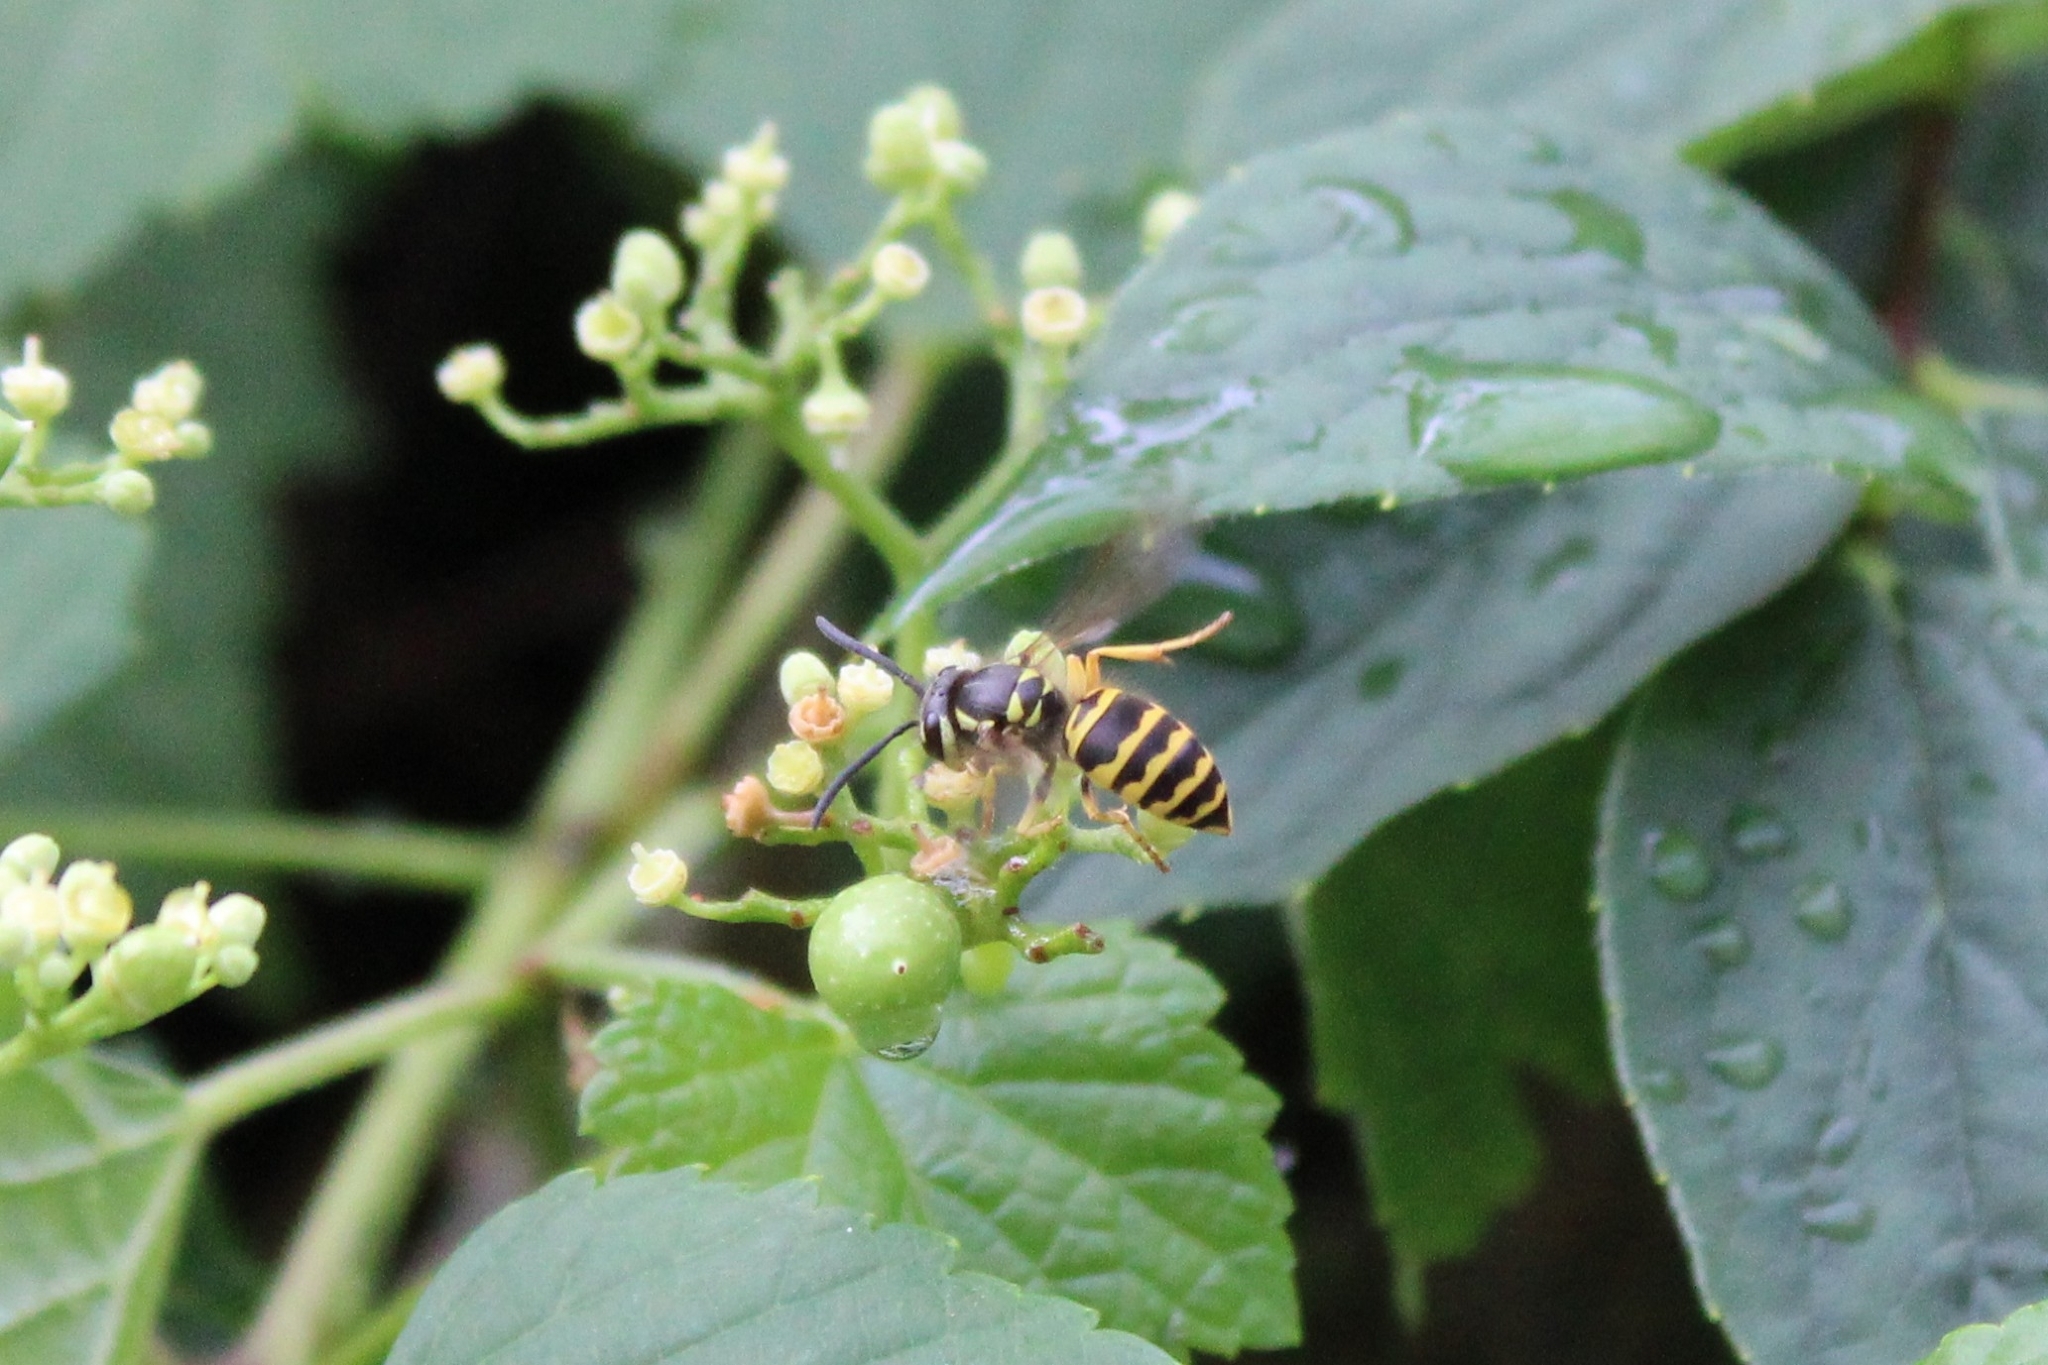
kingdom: Animalia
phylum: Arthropoda
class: Insecta
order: Hymenoptera
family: Vespidae
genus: Vespula
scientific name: Vespula maculifrons
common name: Eastern yellowjacket
